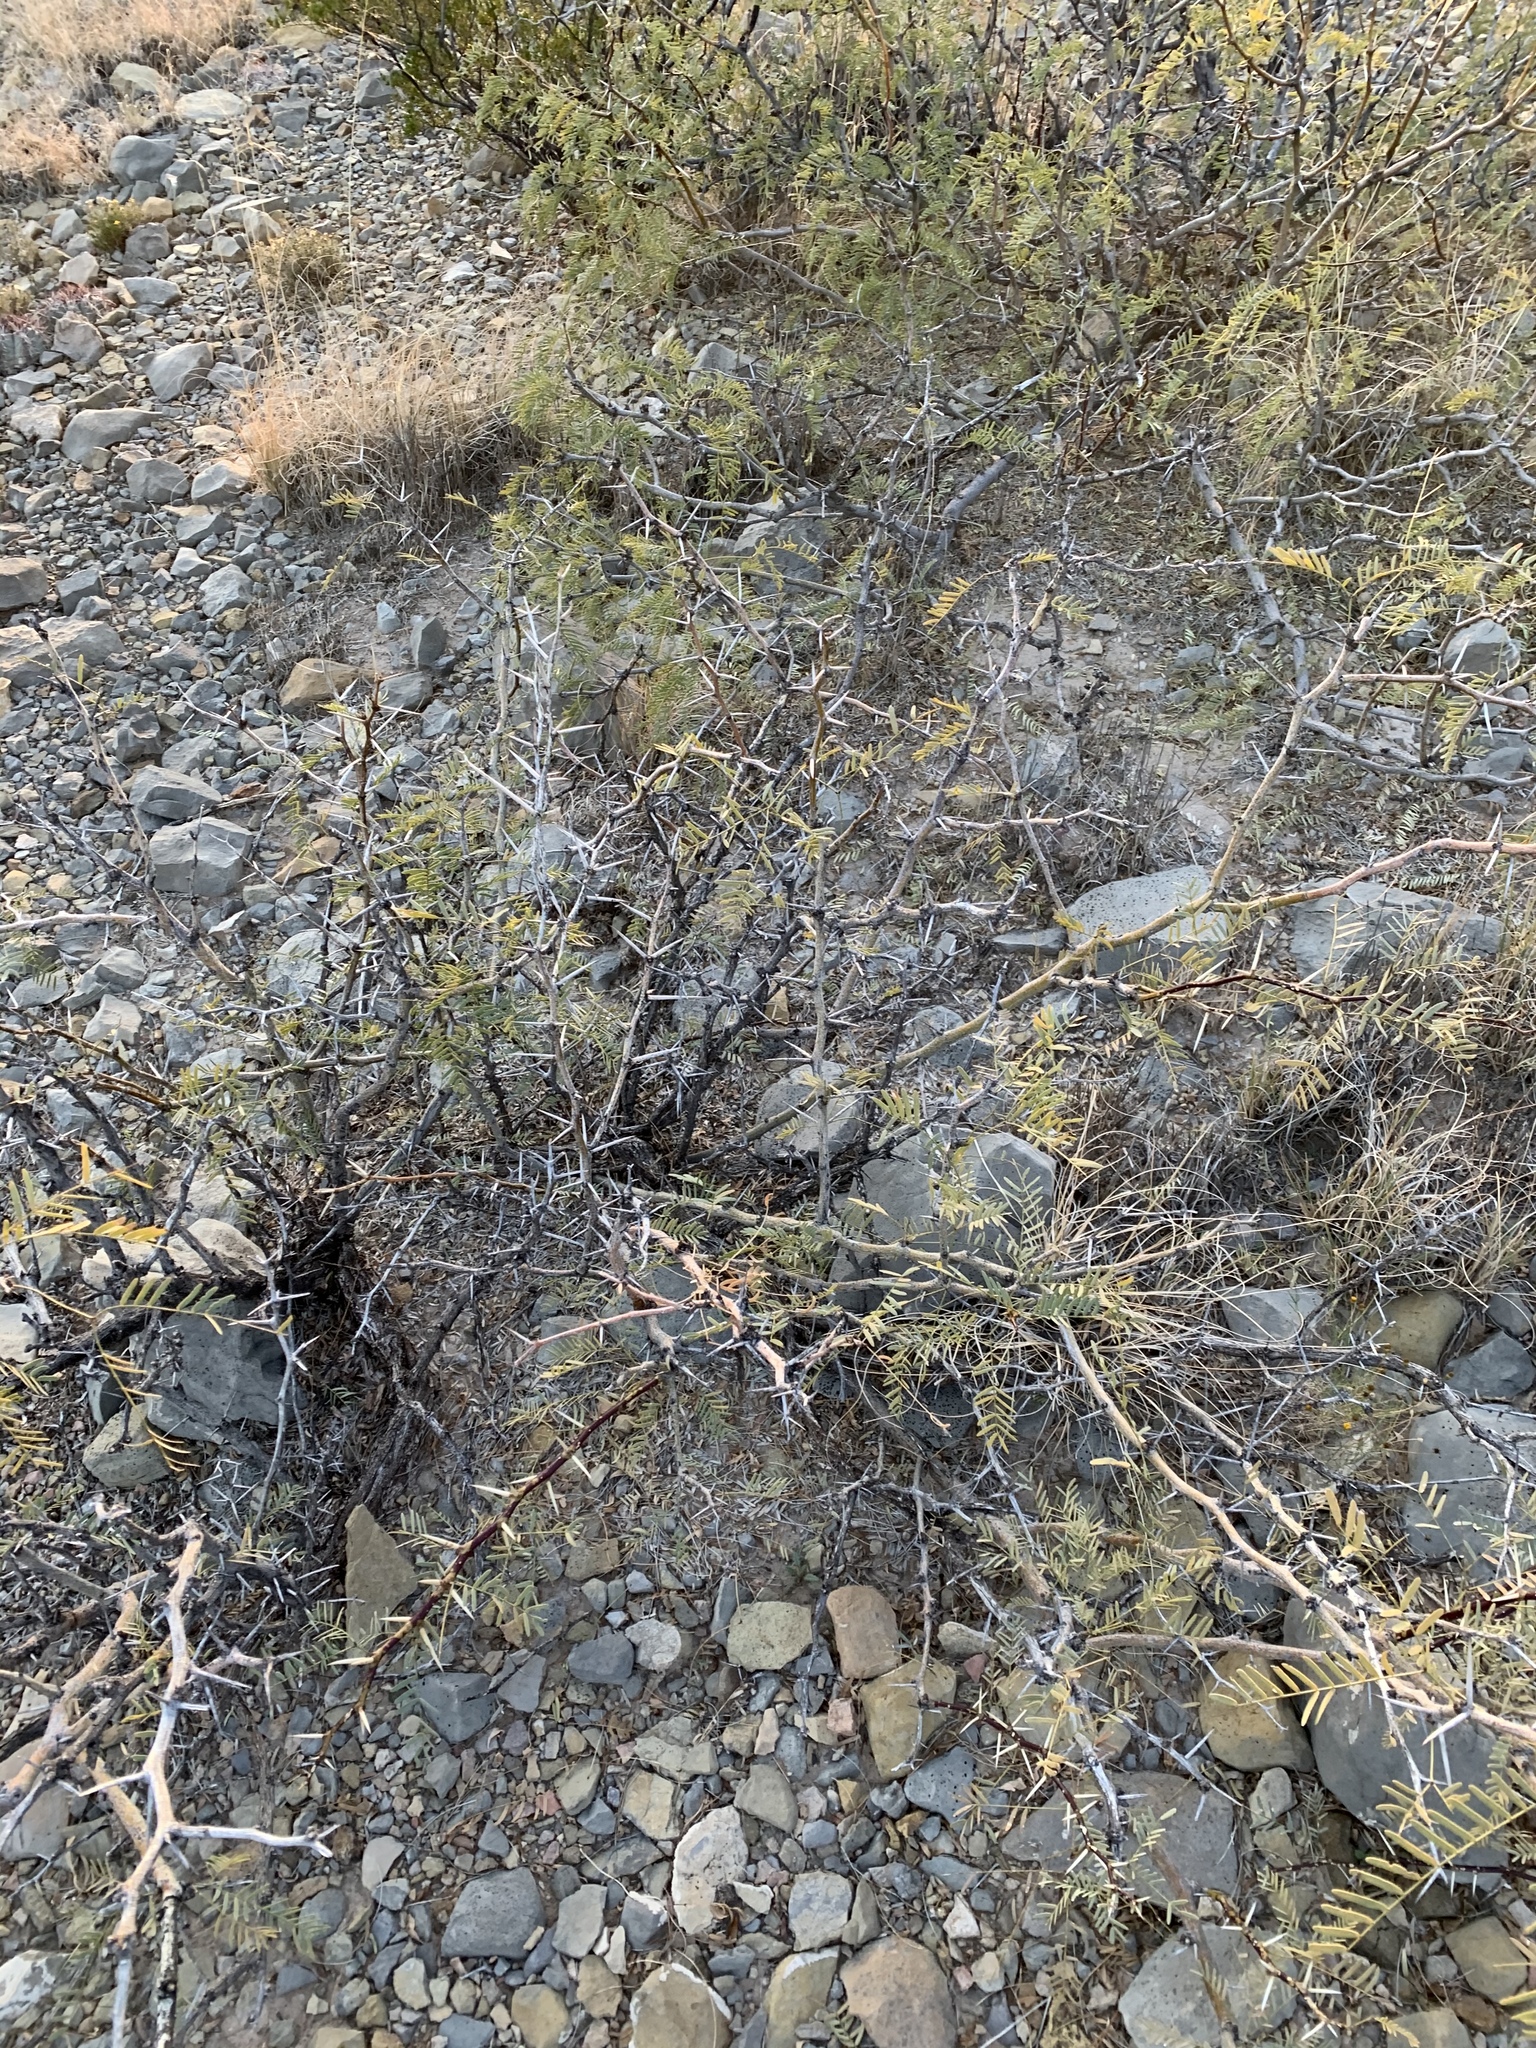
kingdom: Plantae
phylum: Tracheophyta
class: Magnoliopsida
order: Fabales
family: Fabaceae
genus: Prosopis
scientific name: Prosopis glandulosa
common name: Honey mesquite
